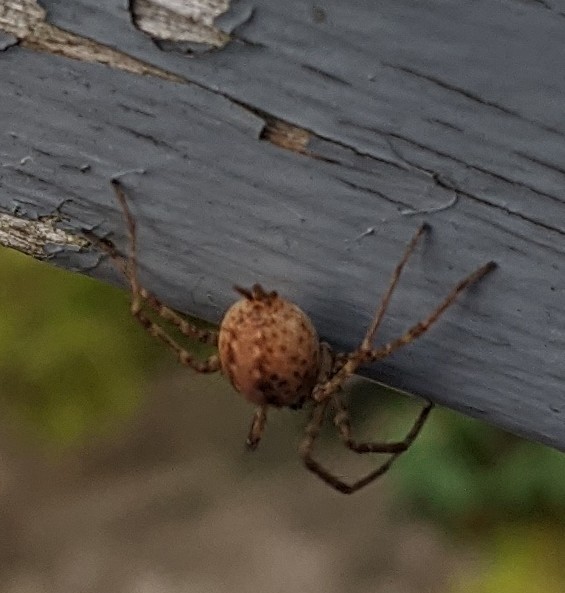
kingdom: Animalia
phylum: Arthropoda
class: Arachnida
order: Araneae
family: Agelenidae
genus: Agelenopsis
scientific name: Agelenopsis
